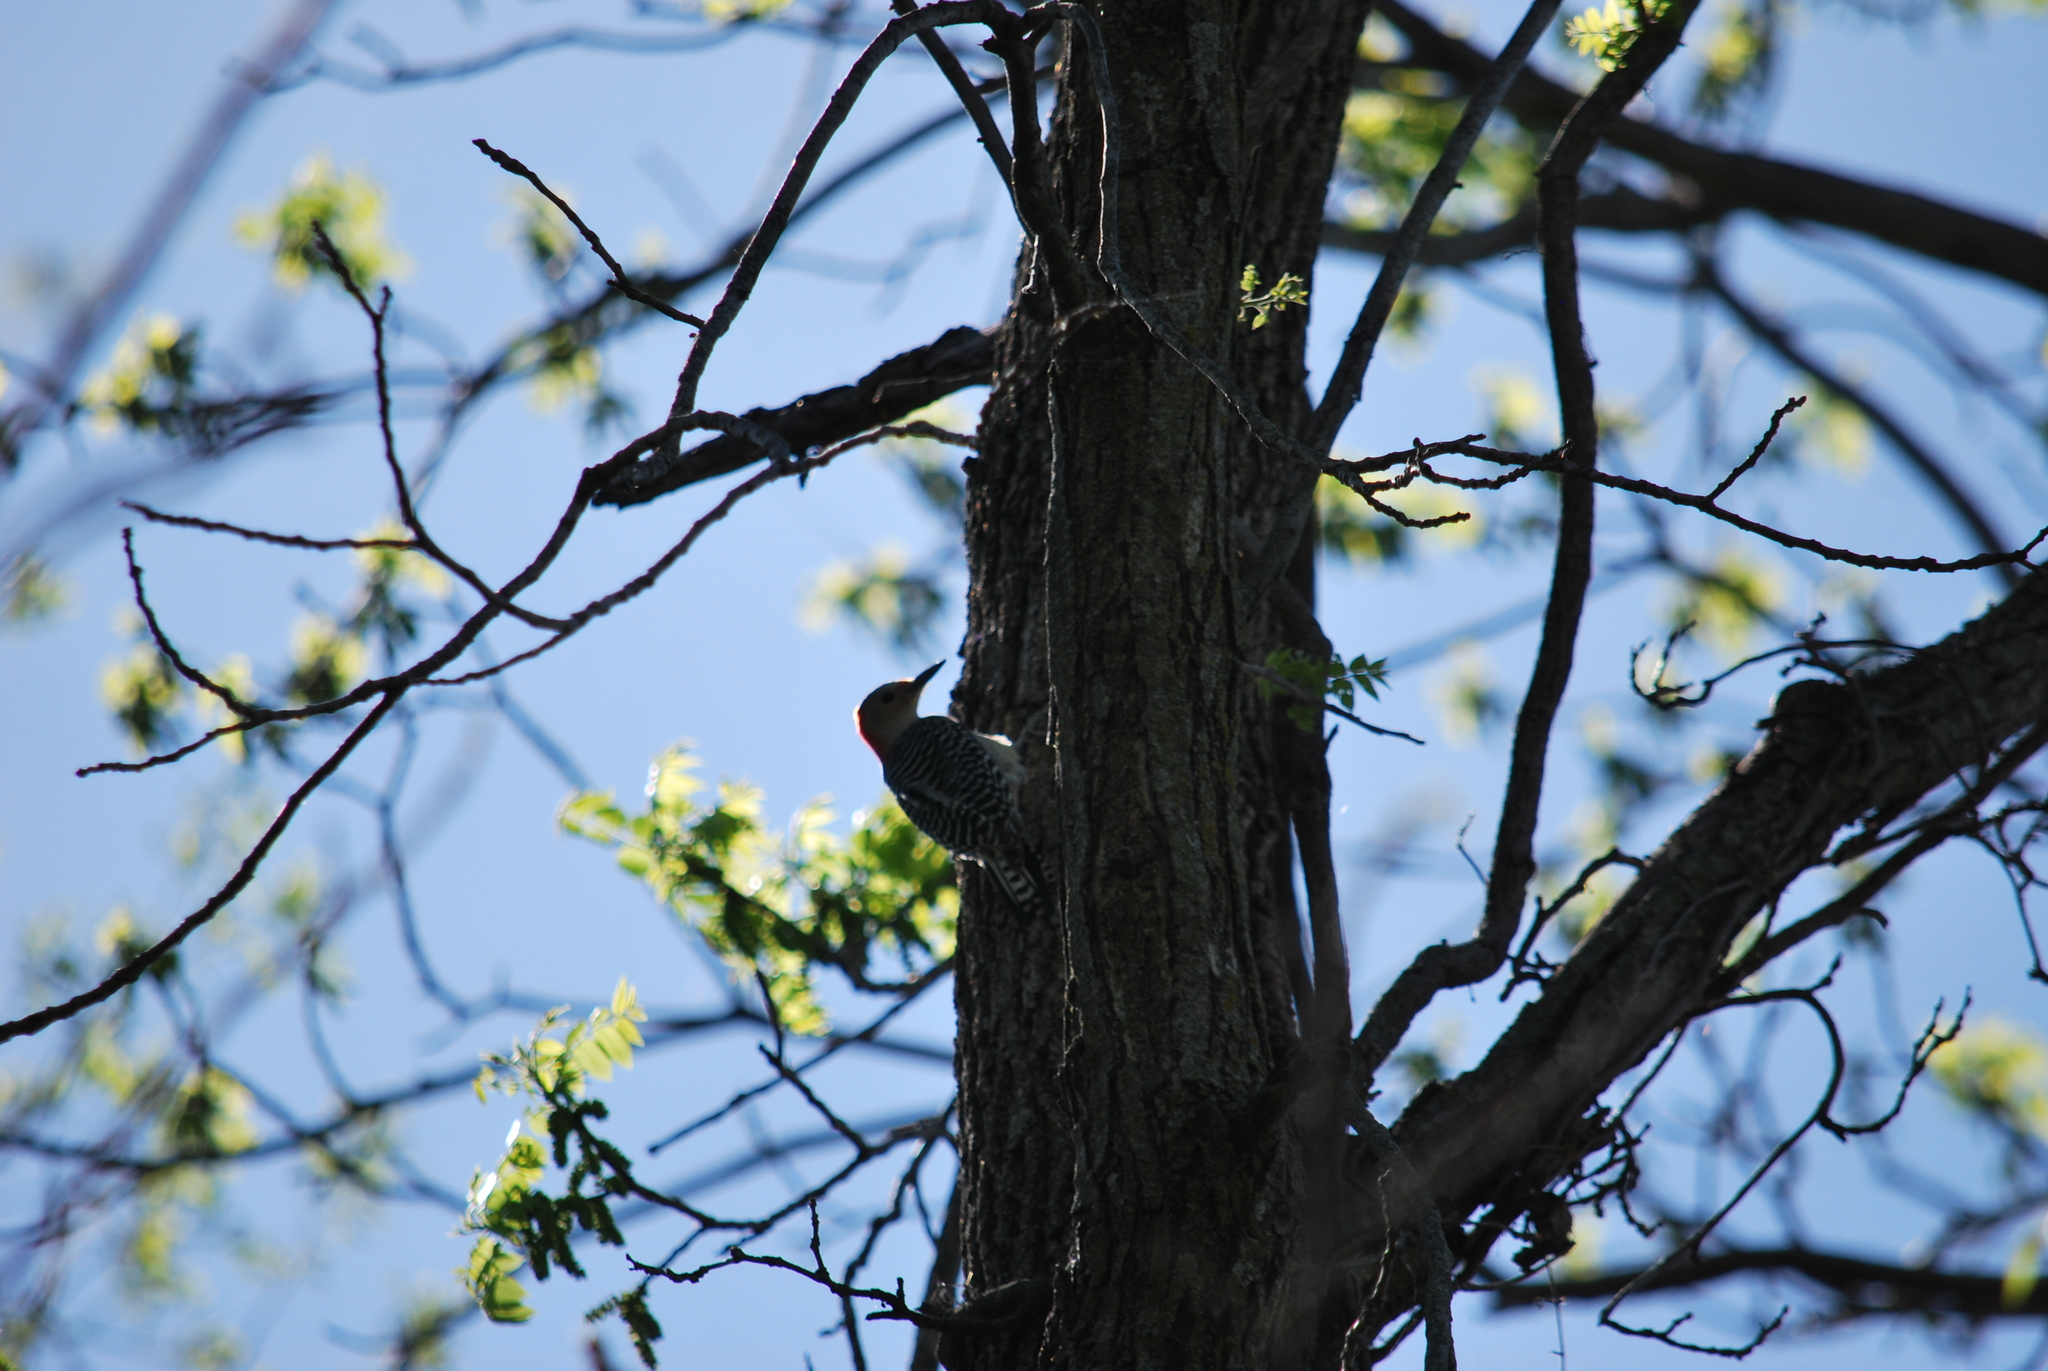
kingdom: Animalia
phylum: Chordata
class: Aves
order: Piciformes
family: Picidae
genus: Melanerpes
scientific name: Melanerpes carolinus
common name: Red-bellied woodpecker
